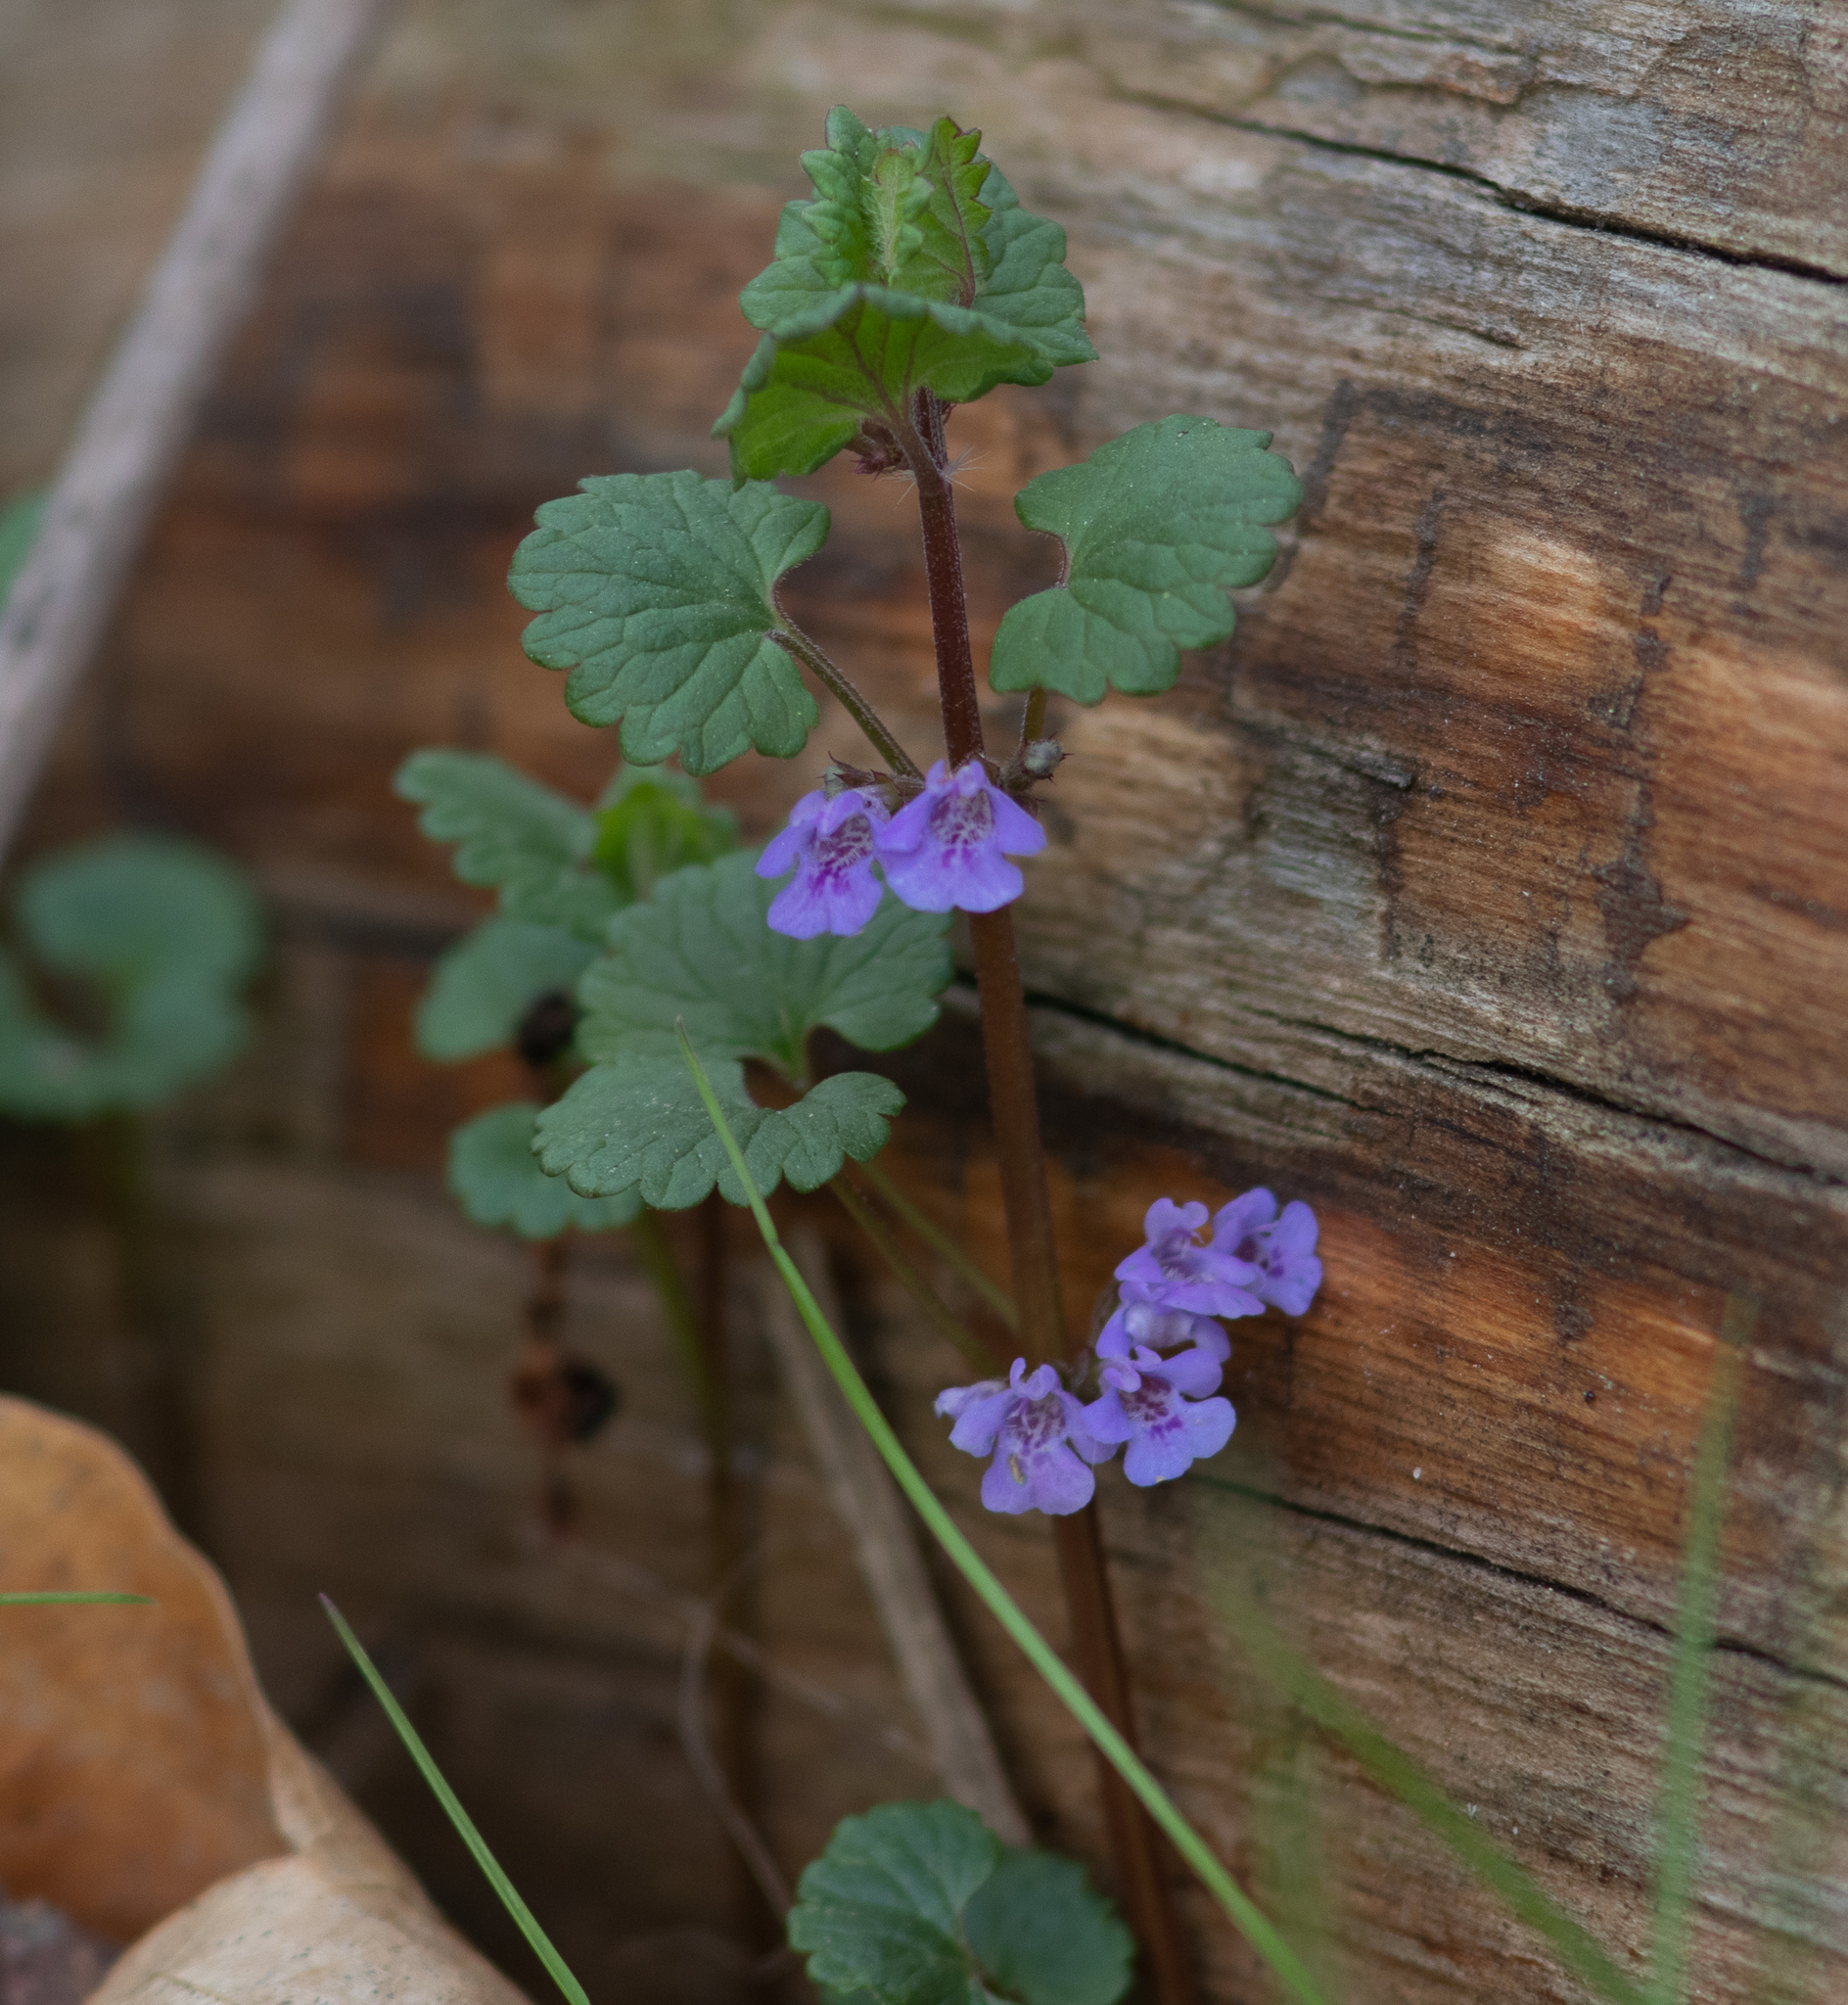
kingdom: Plantae
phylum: Tracheophyta
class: Magnoliopsida
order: Lamiales
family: Lamiaceae
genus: Glechoma
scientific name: Glechoma hederacea
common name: Ground ivy
